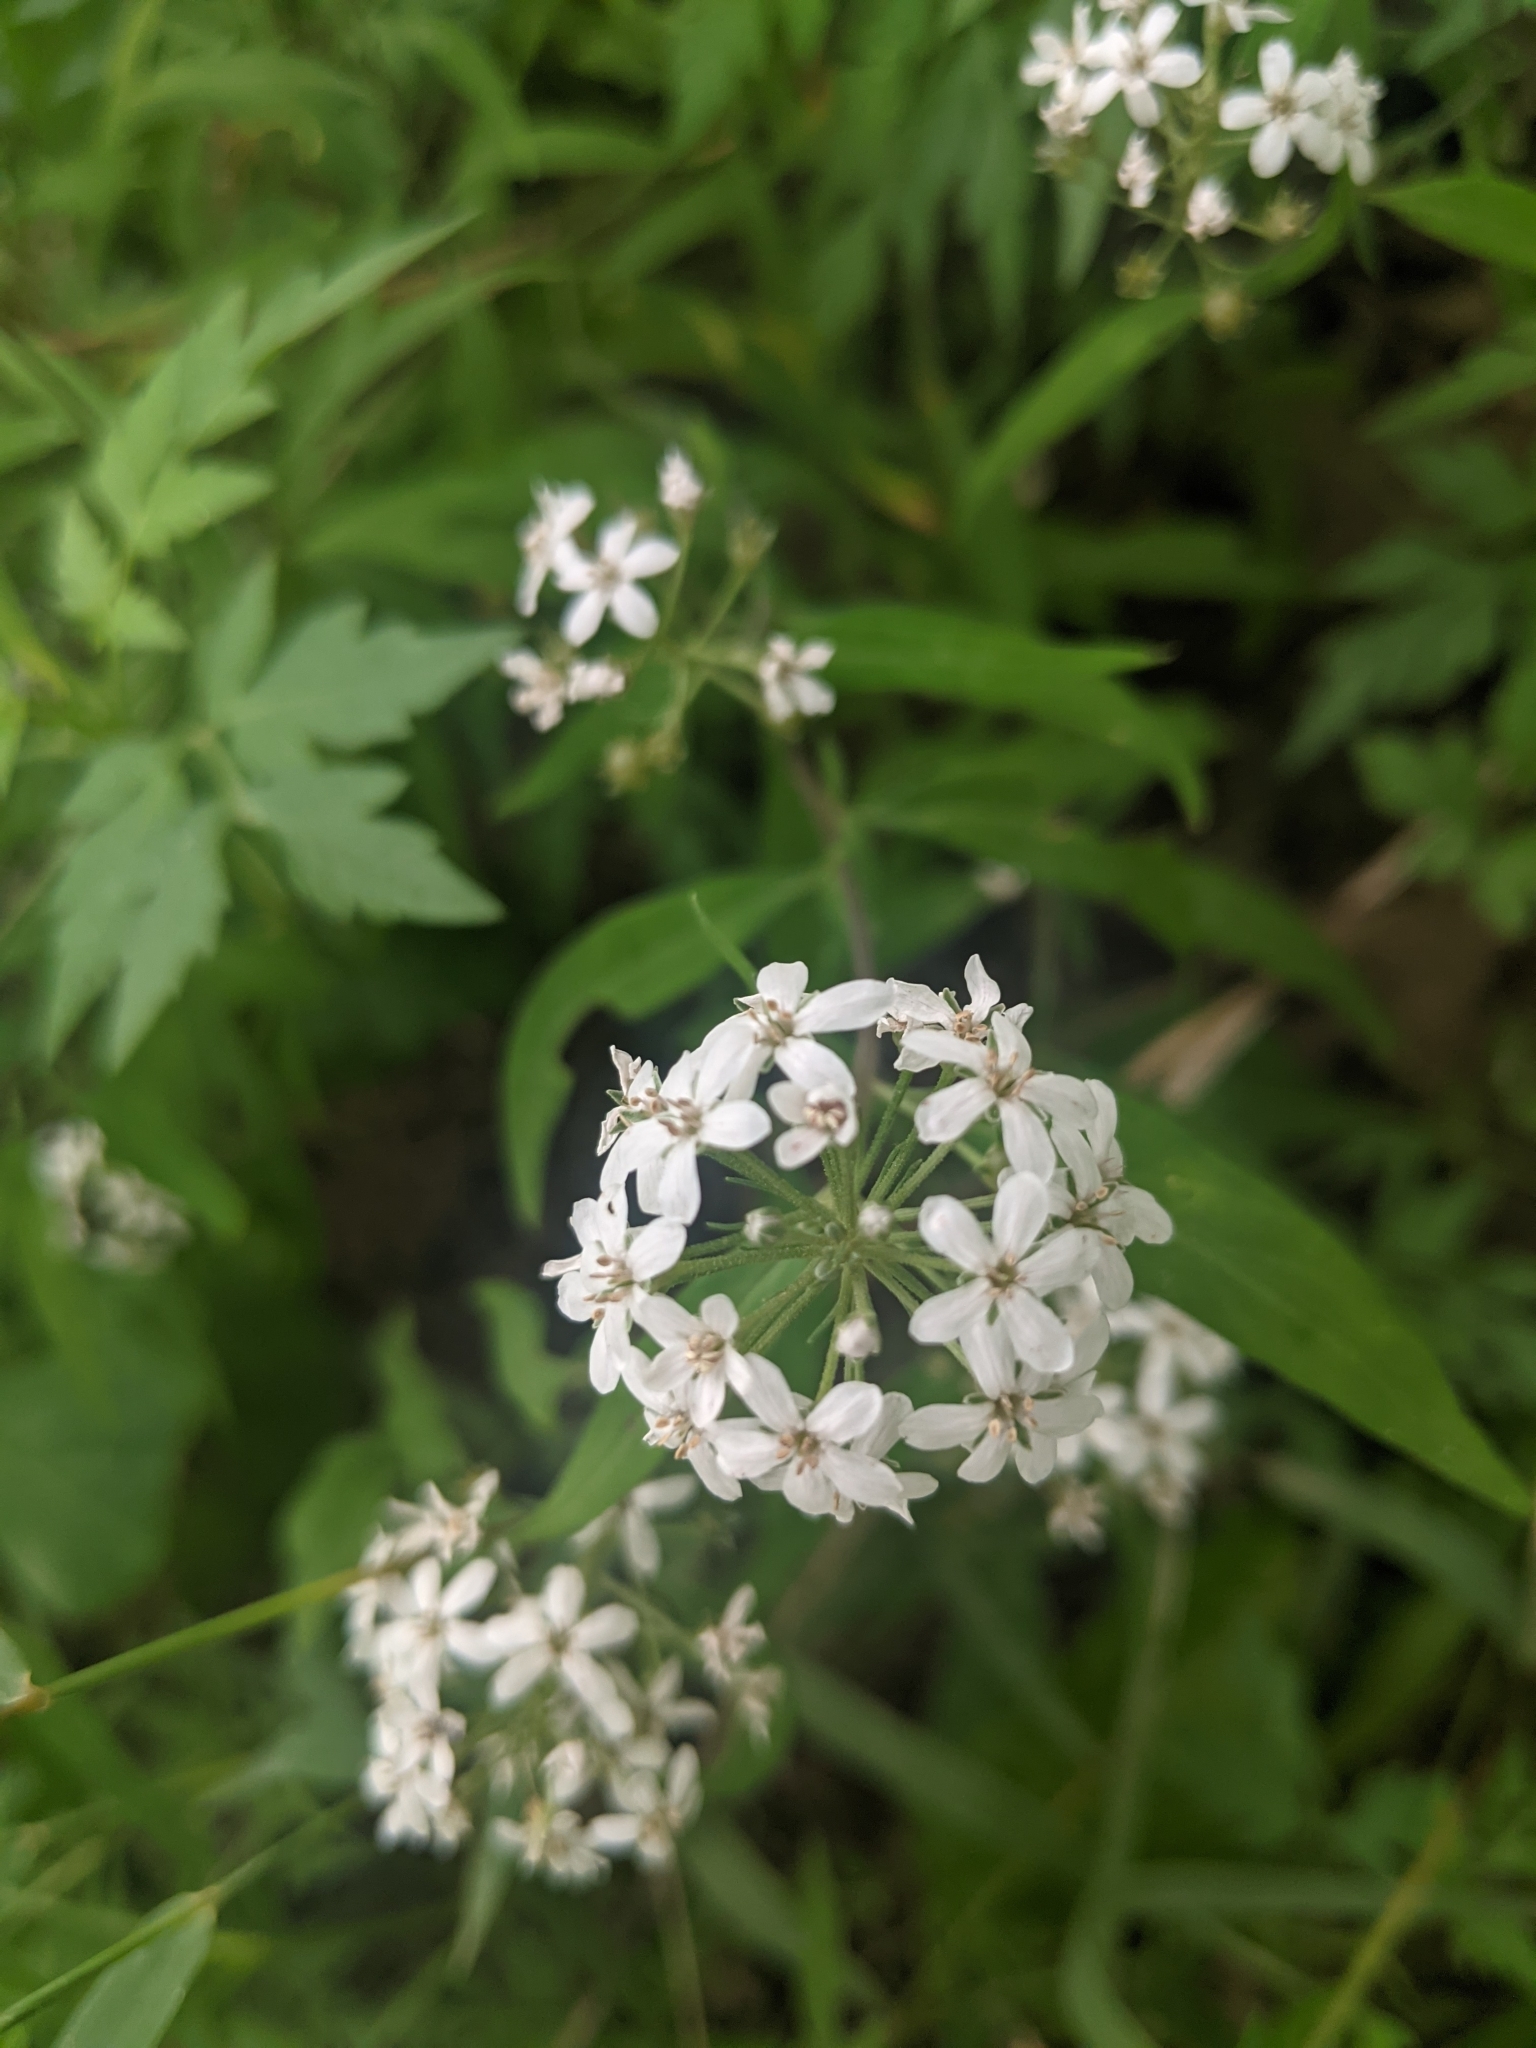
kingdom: Plantae
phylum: Tracheophyta
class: Magnoliopsida
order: Ericales
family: Primulaceae
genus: Lysimachia
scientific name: Lysimachia pentapetala
